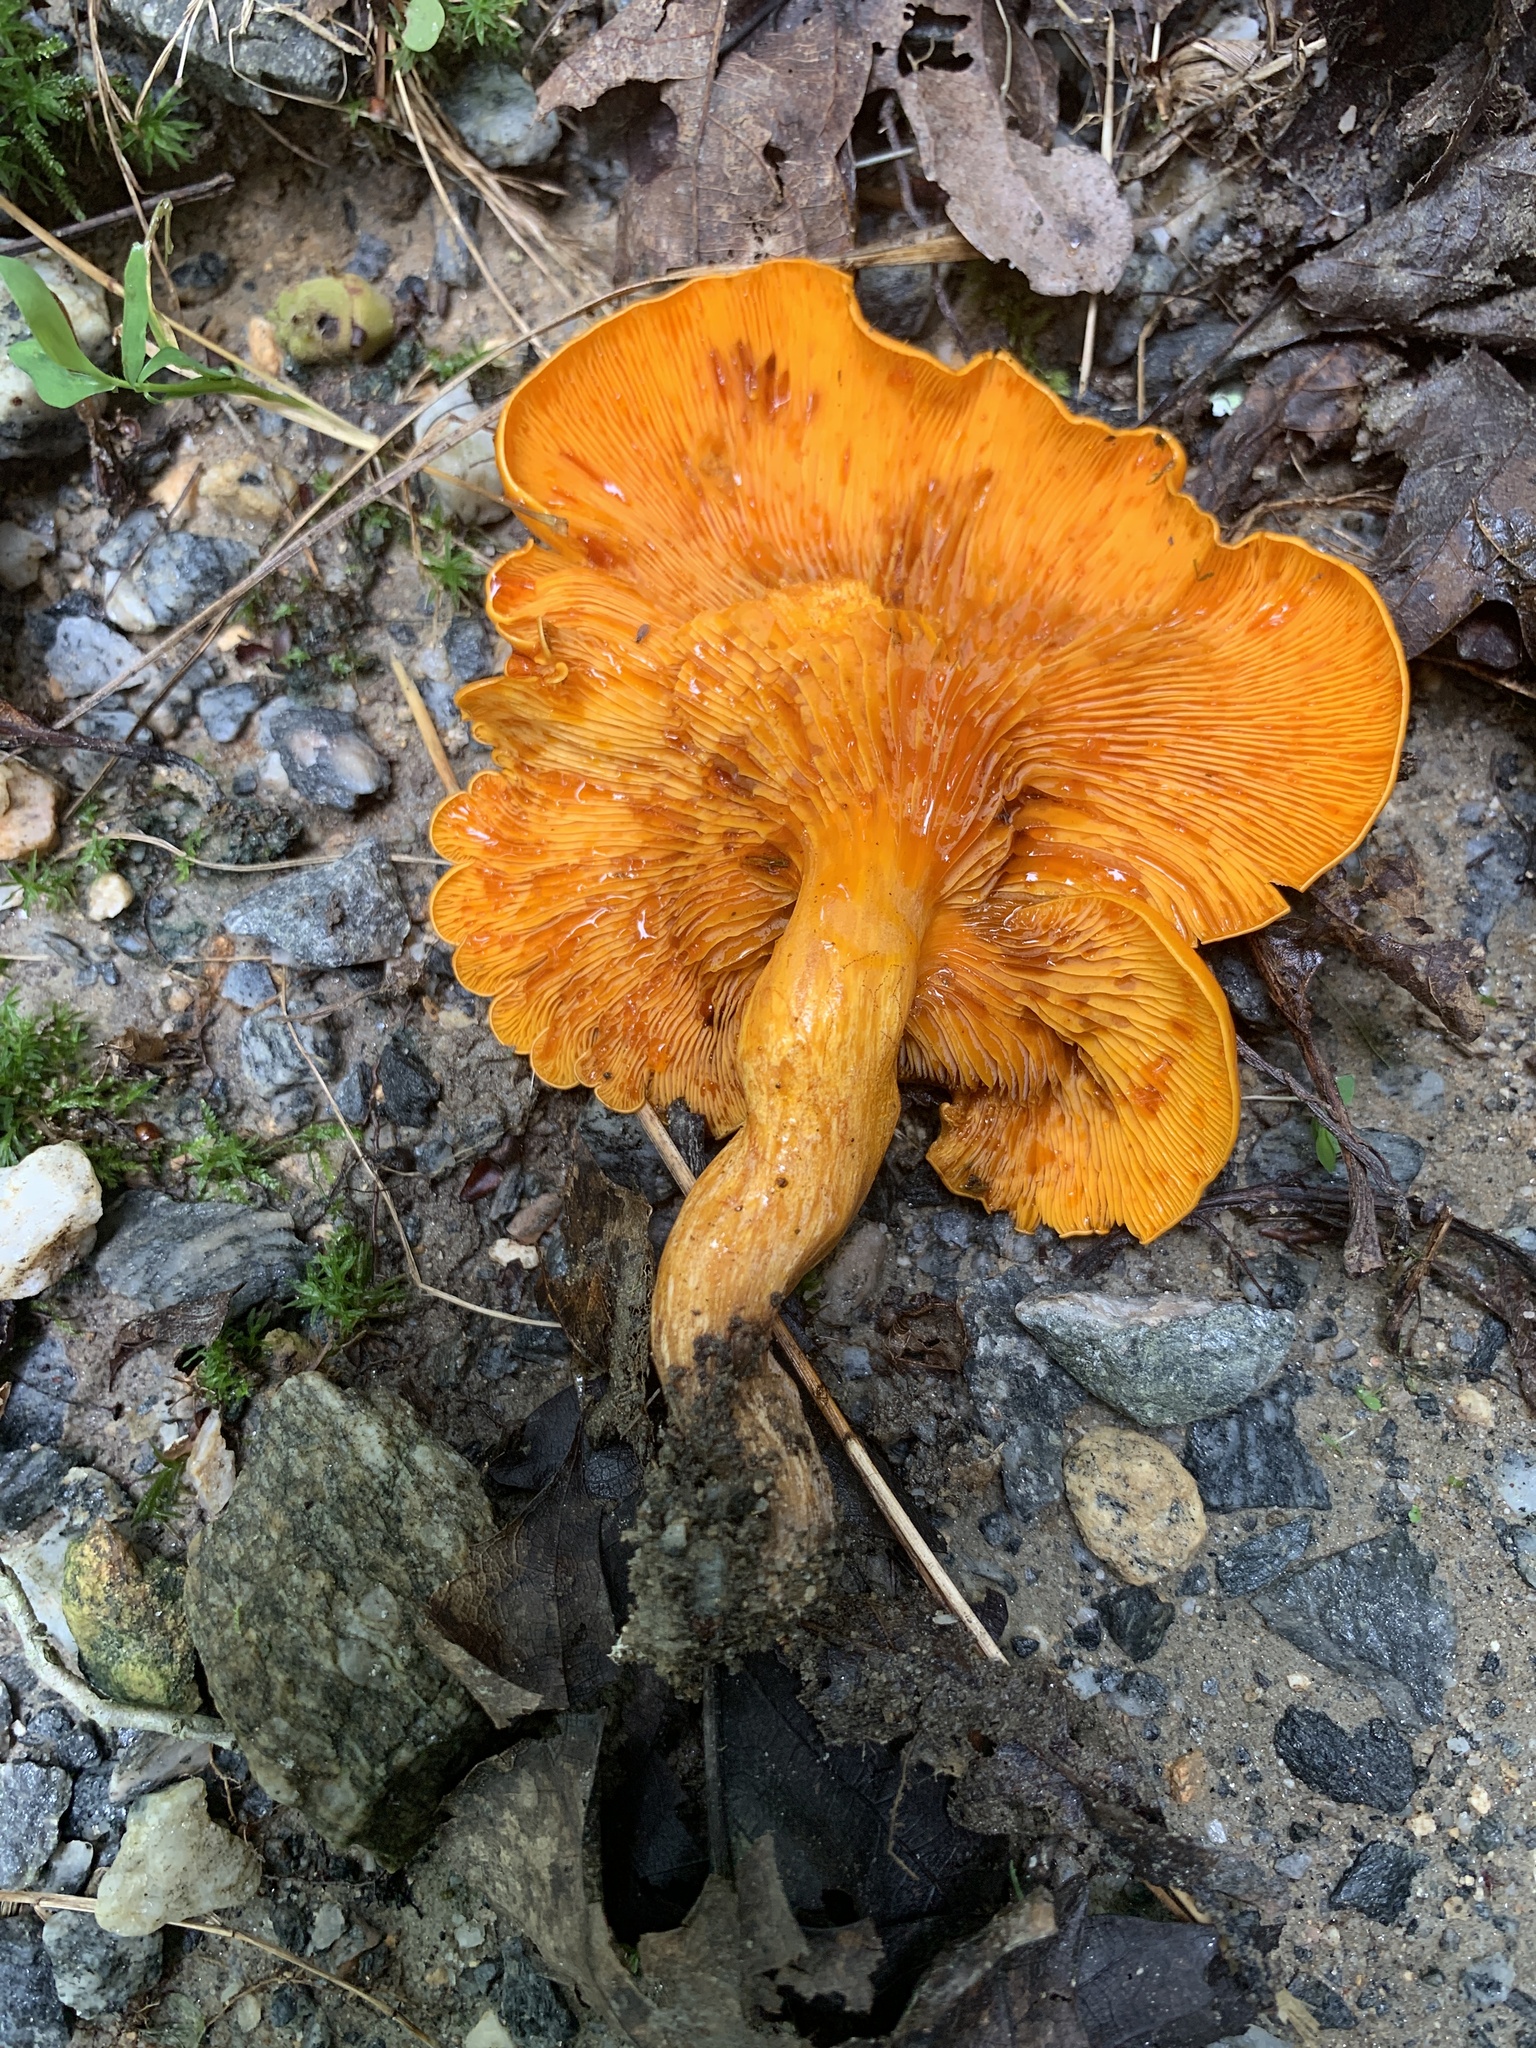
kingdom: Fungi
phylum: Basidiomycota
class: Agaricomycetes
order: Agaricales
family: Omphalotaceae
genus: Omphalotus
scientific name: Omphalotus illudens
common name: Jack o lantern
